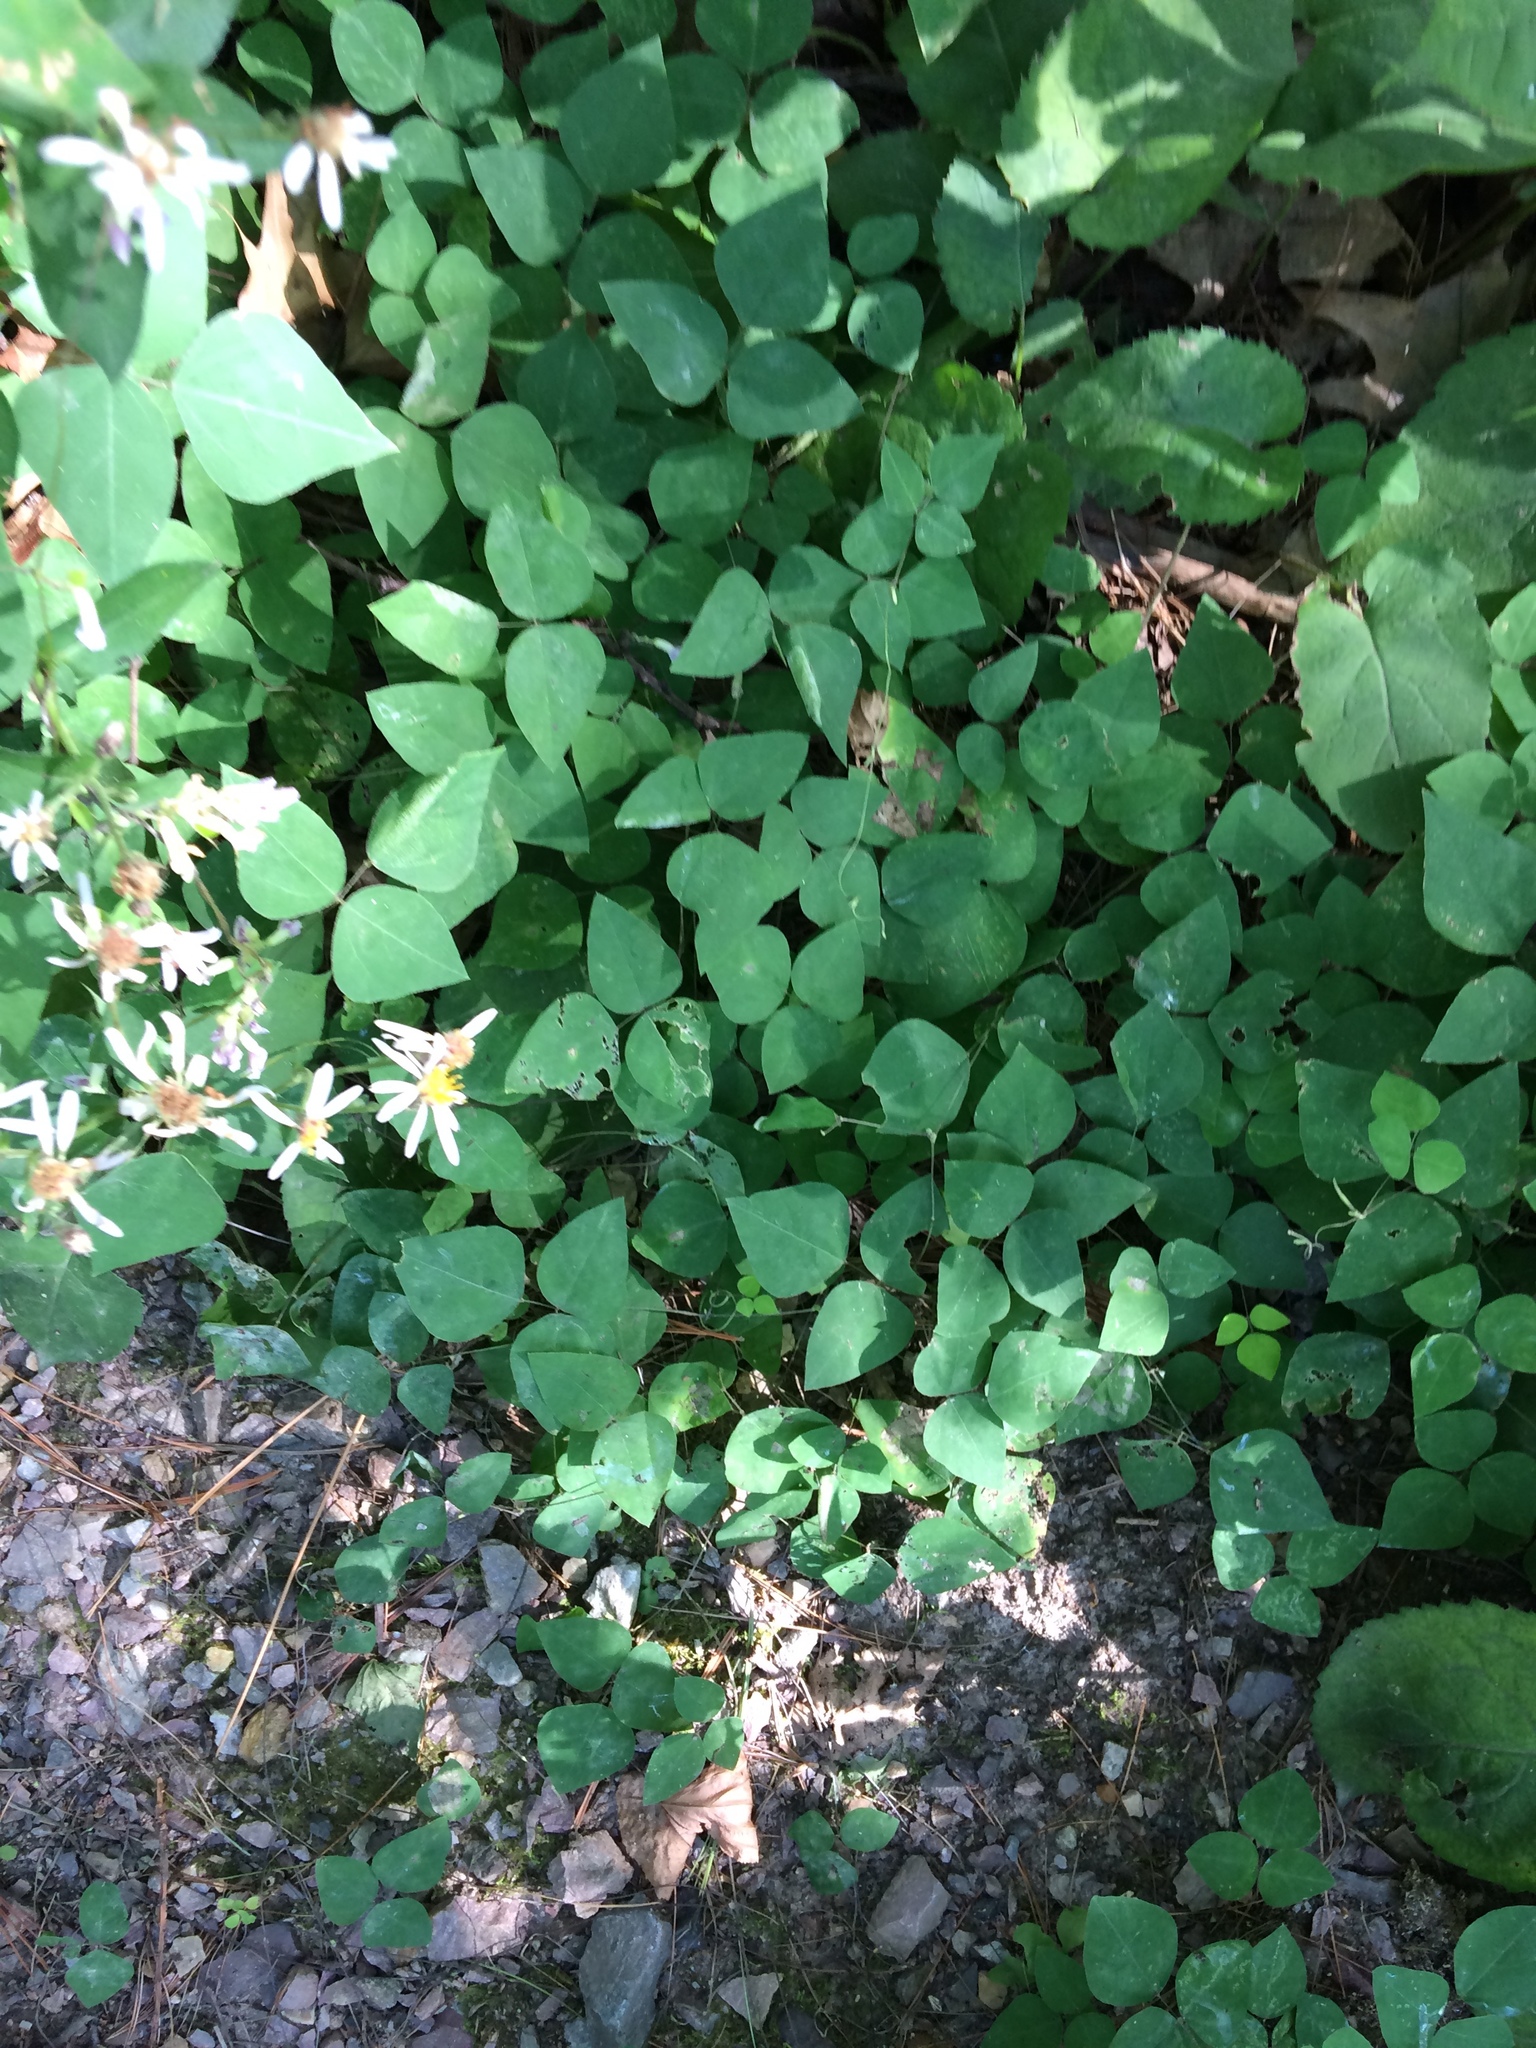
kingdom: Plantae
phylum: Tracheophyta
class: Magnoliopsida
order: Fabales
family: Fabaceae
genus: Amphicarpaea
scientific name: Amphicarpaea bracteata
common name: American hog peanut
